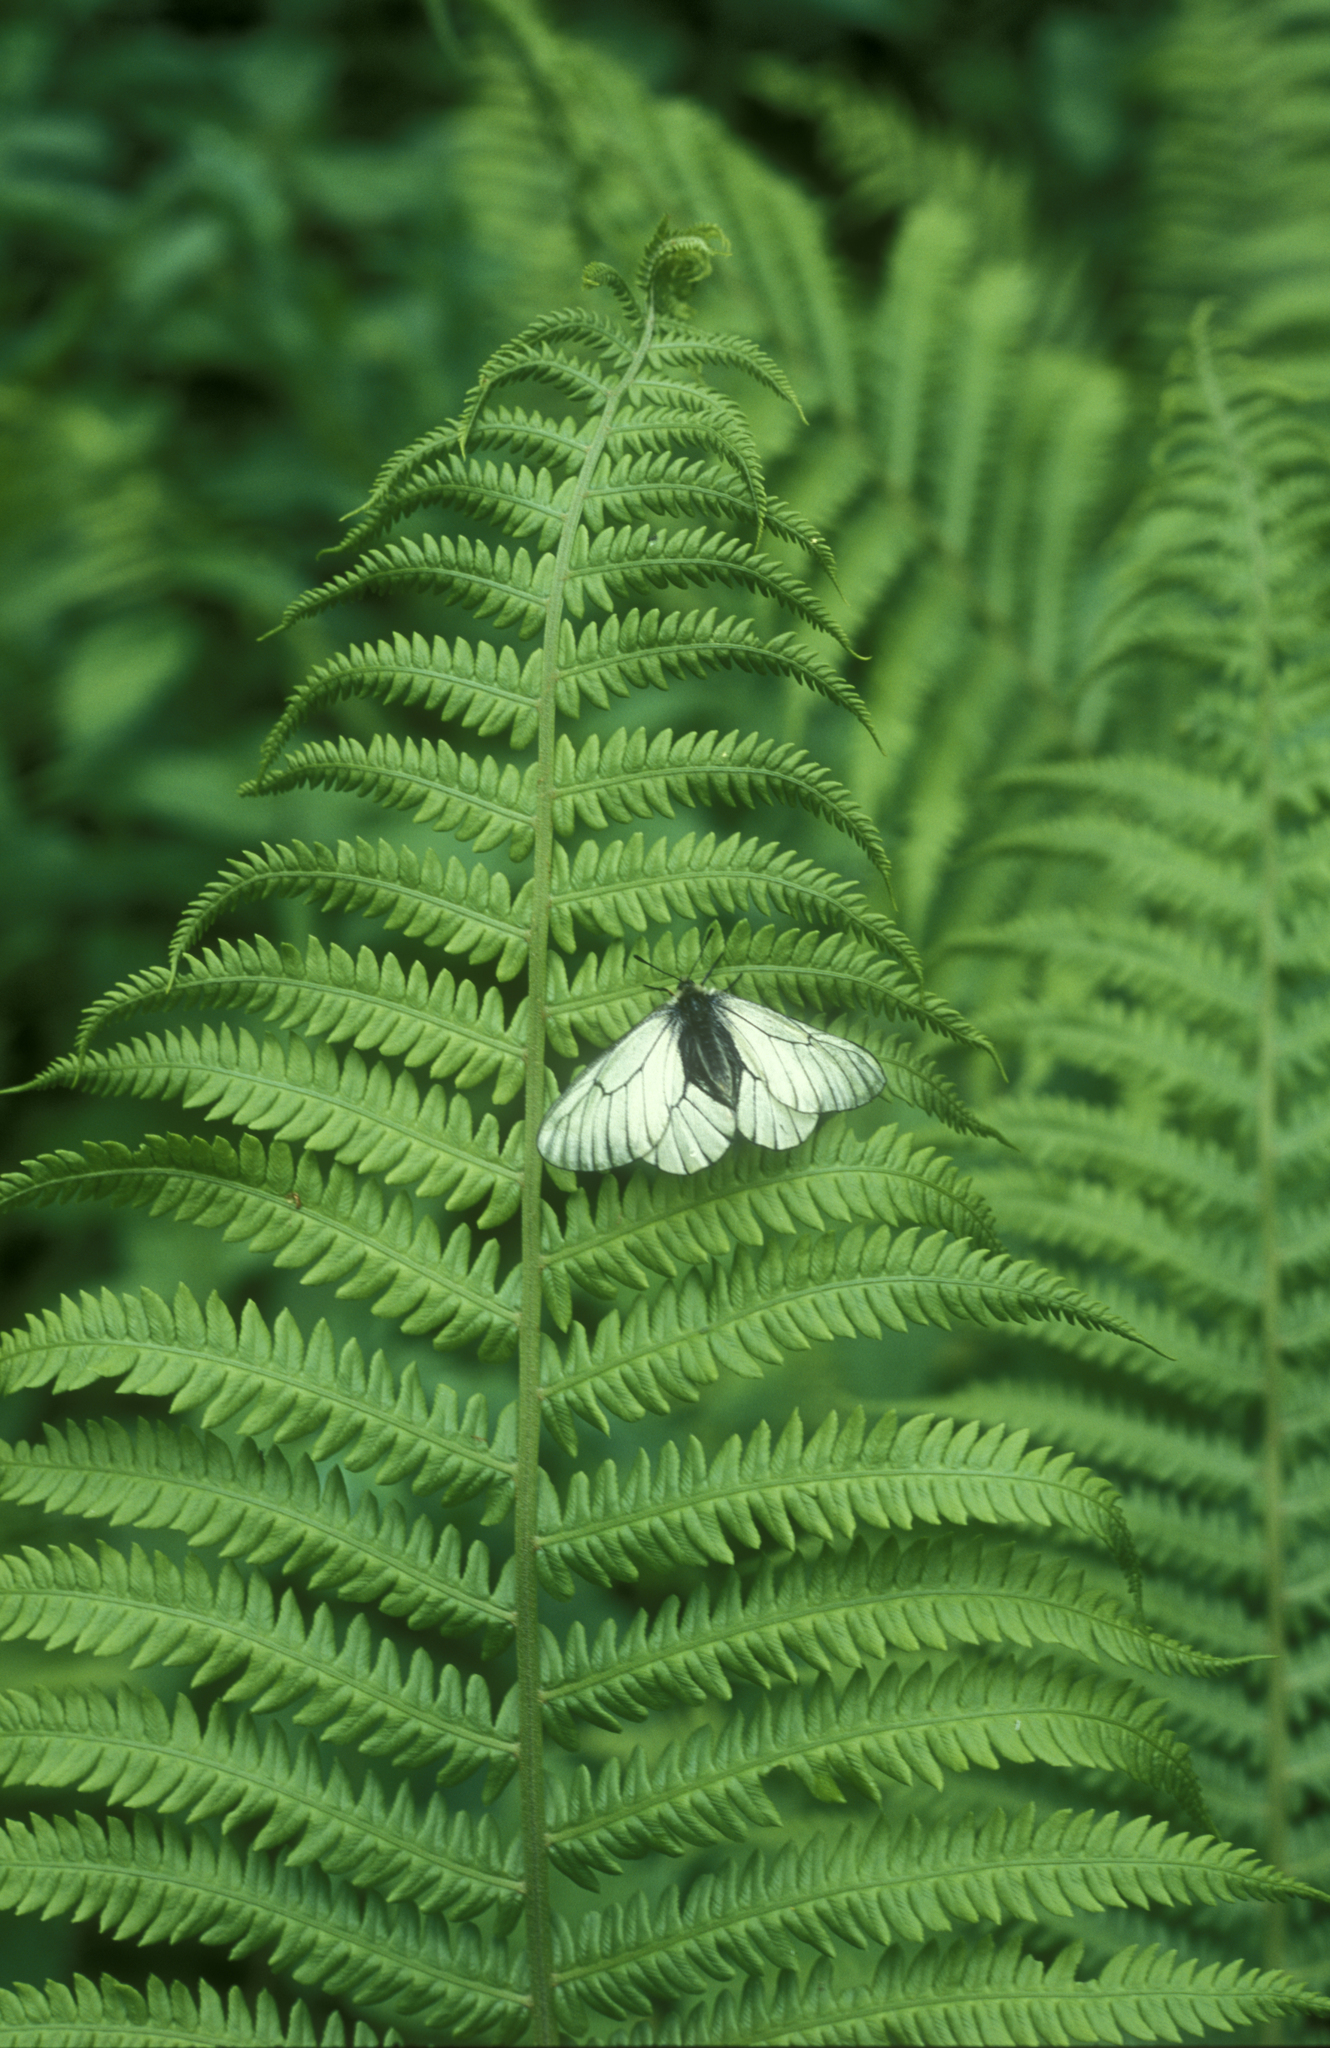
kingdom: Plantae
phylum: Tracheophyta
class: Polypodiopsida
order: Polypodiales
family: Onocleaceae
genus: Matteuccia
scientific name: Matteuccia struthiopteris
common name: Ostrich fern
